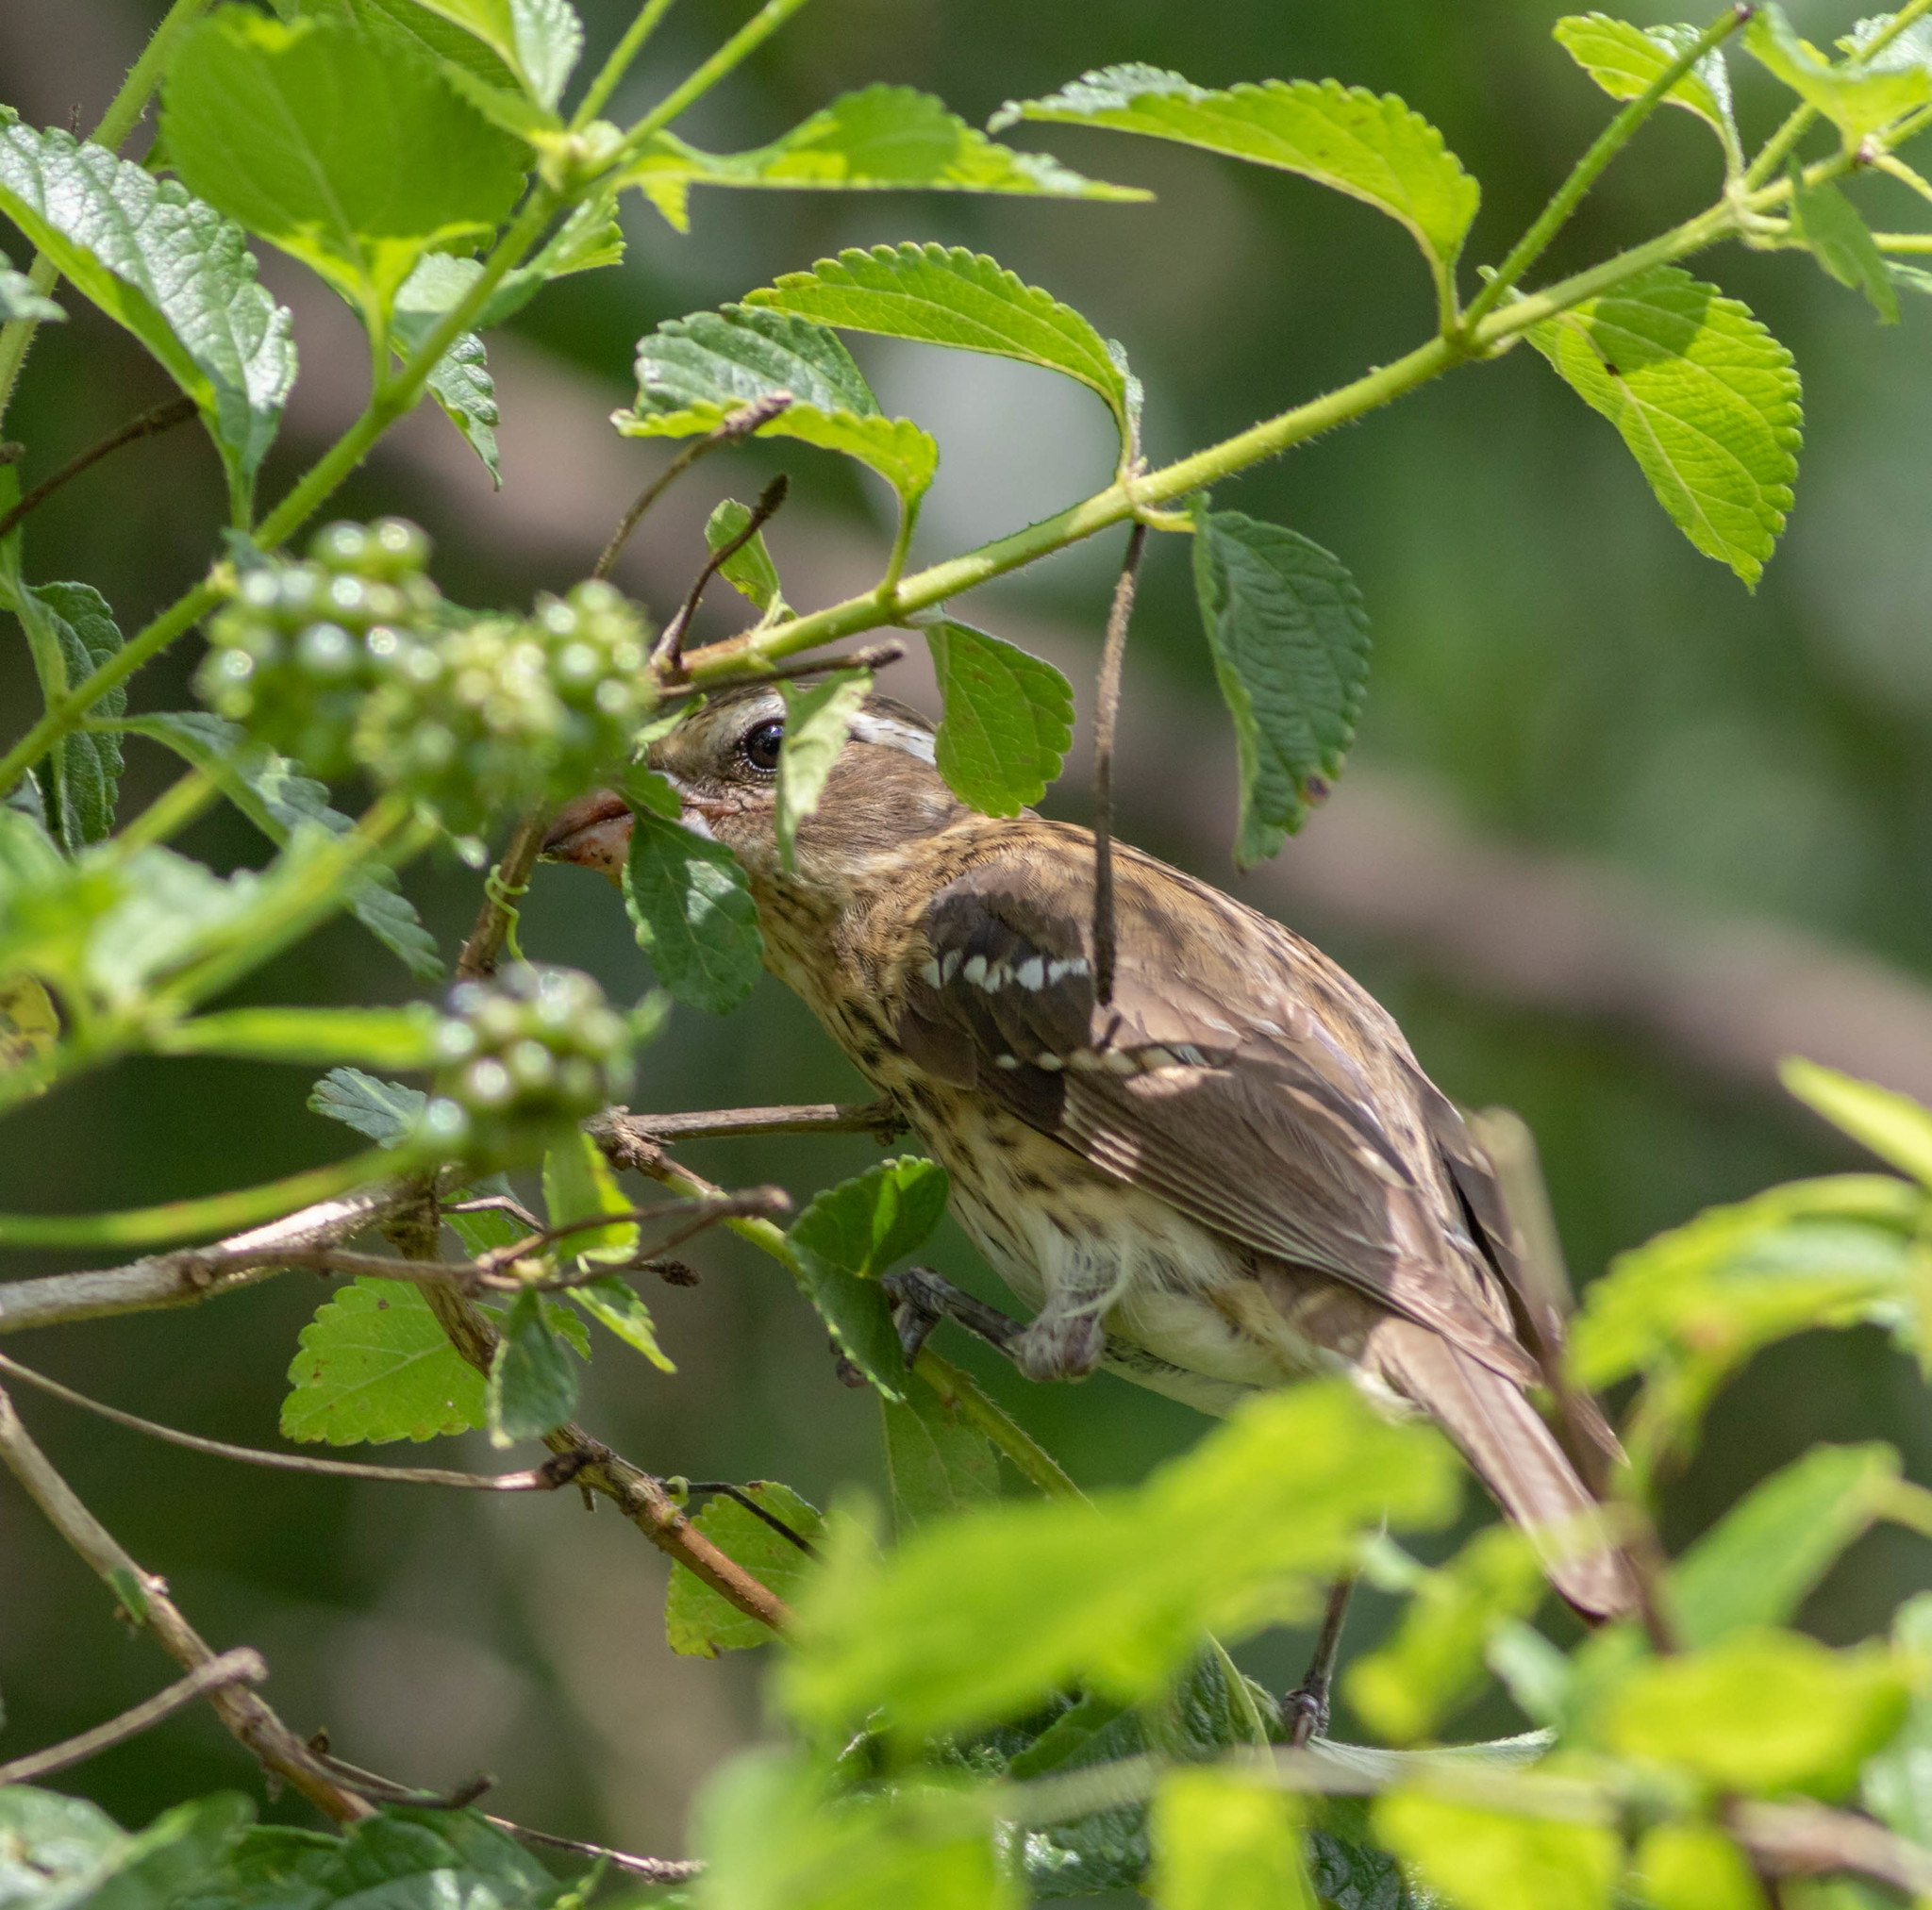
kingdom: Animalia
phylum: Chordata
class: Aves
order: Passeriformes
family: Cardinalidae
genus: Pheucticus
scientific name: Pheucticus ludovicianus
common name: Rose-breasted grosbeak
